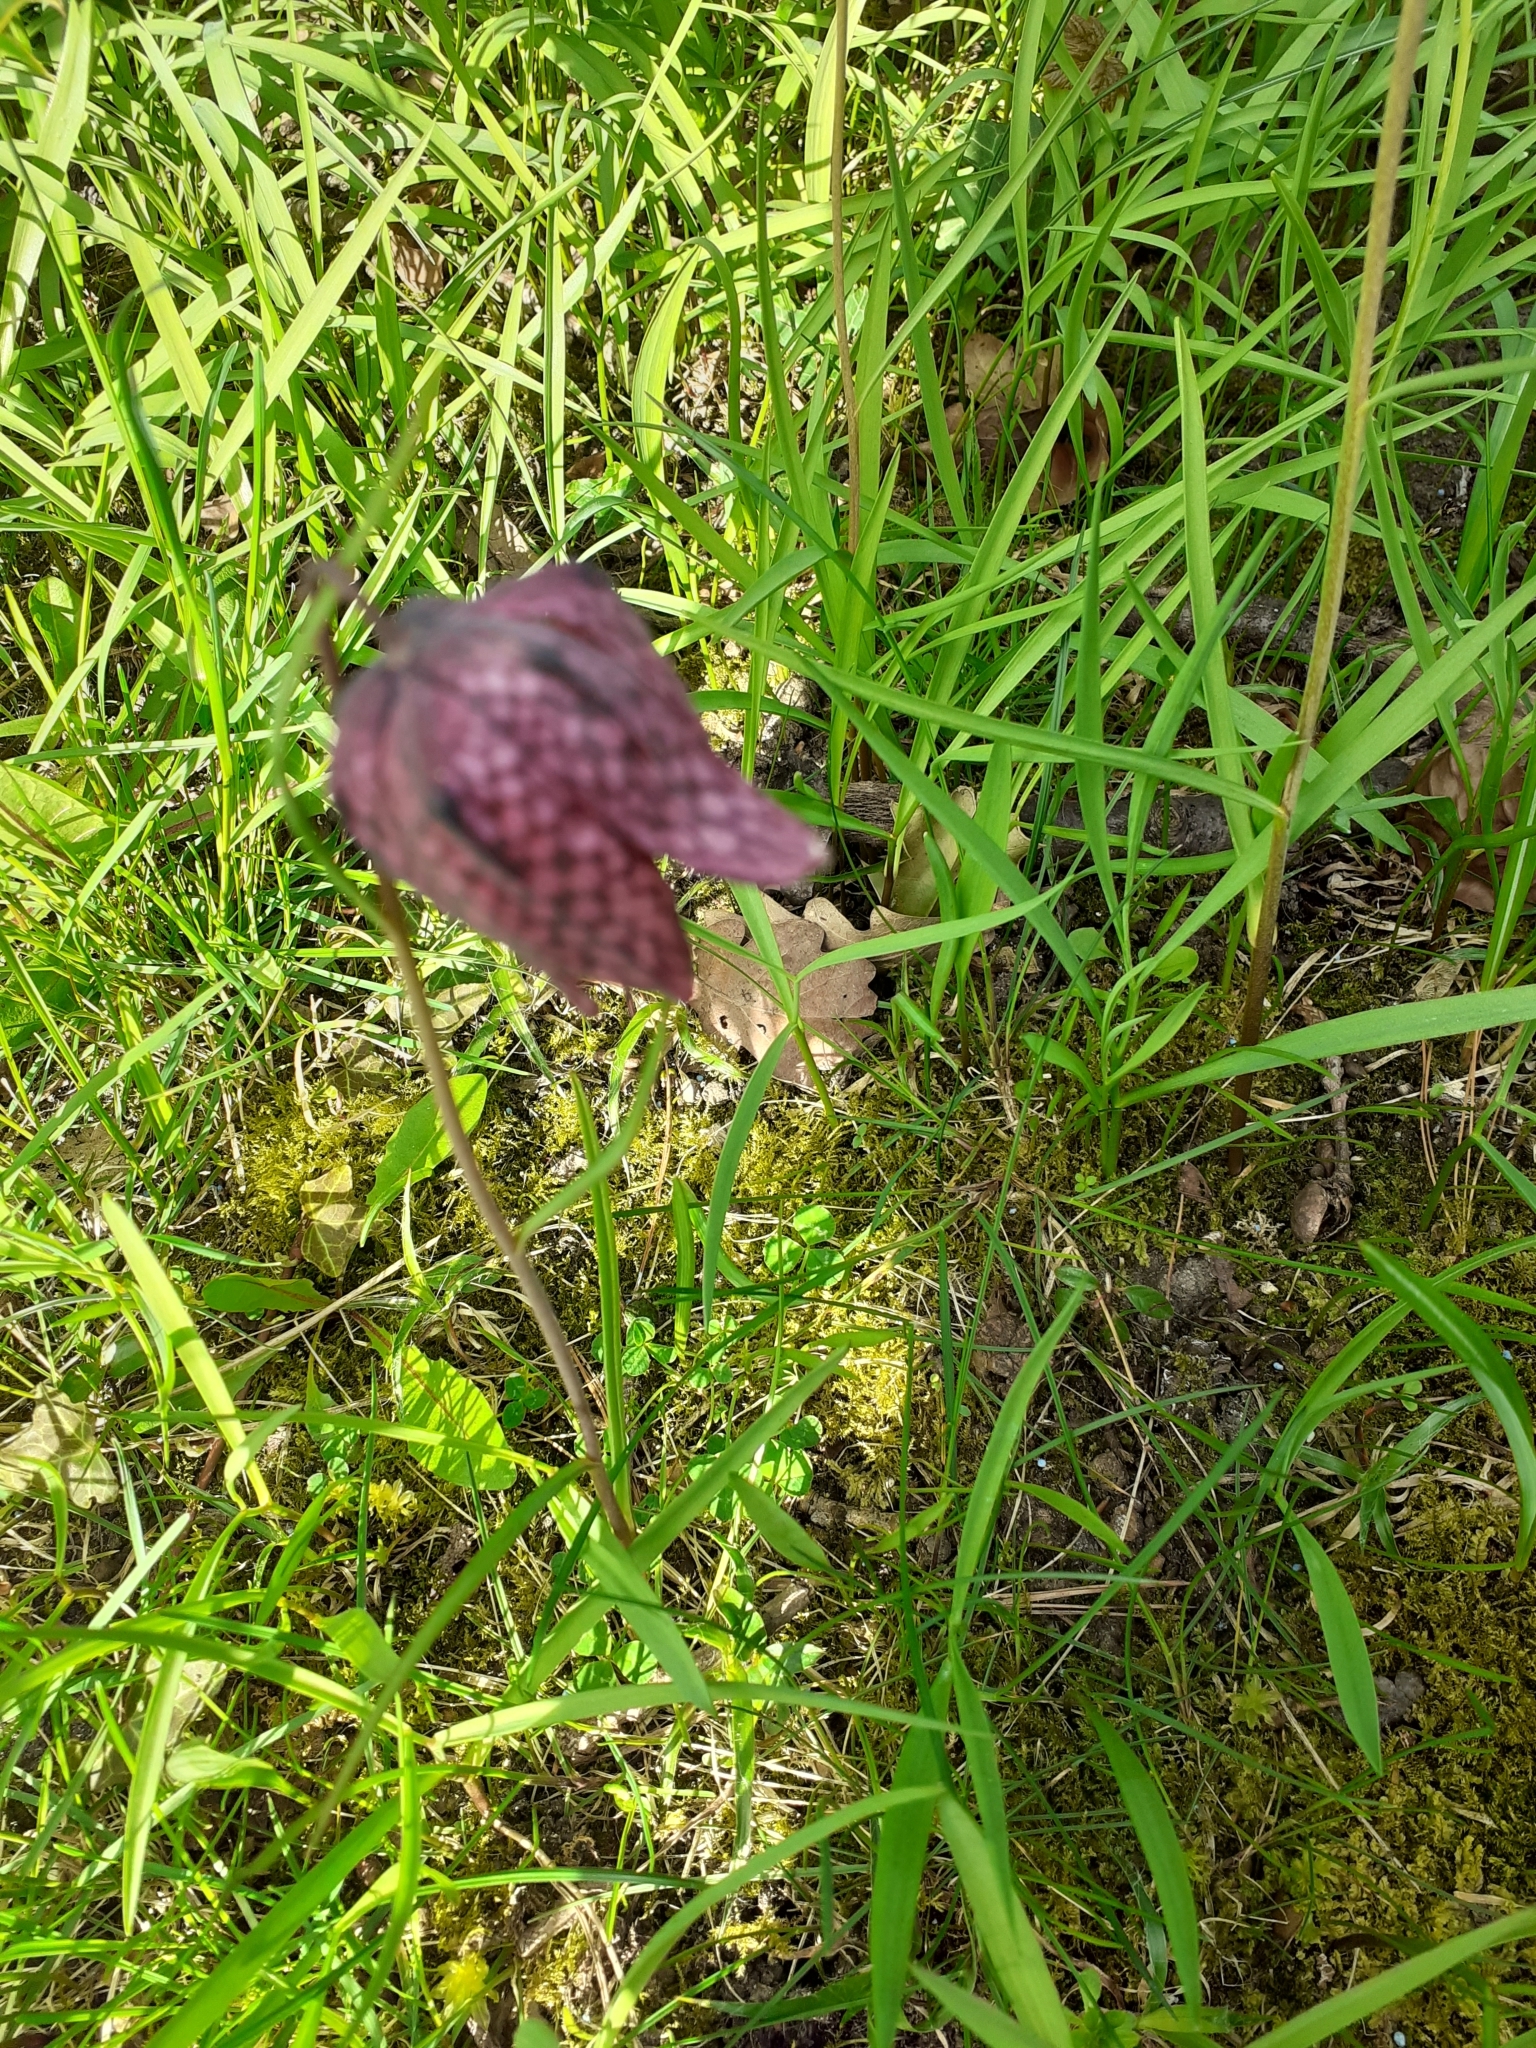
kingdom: Plantae
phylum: Tracheophyta
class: Liliopsida
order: Liliales
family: Liliaceae
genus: Fritillaria
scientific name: Fritillaria meleagris
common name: Fritillary
